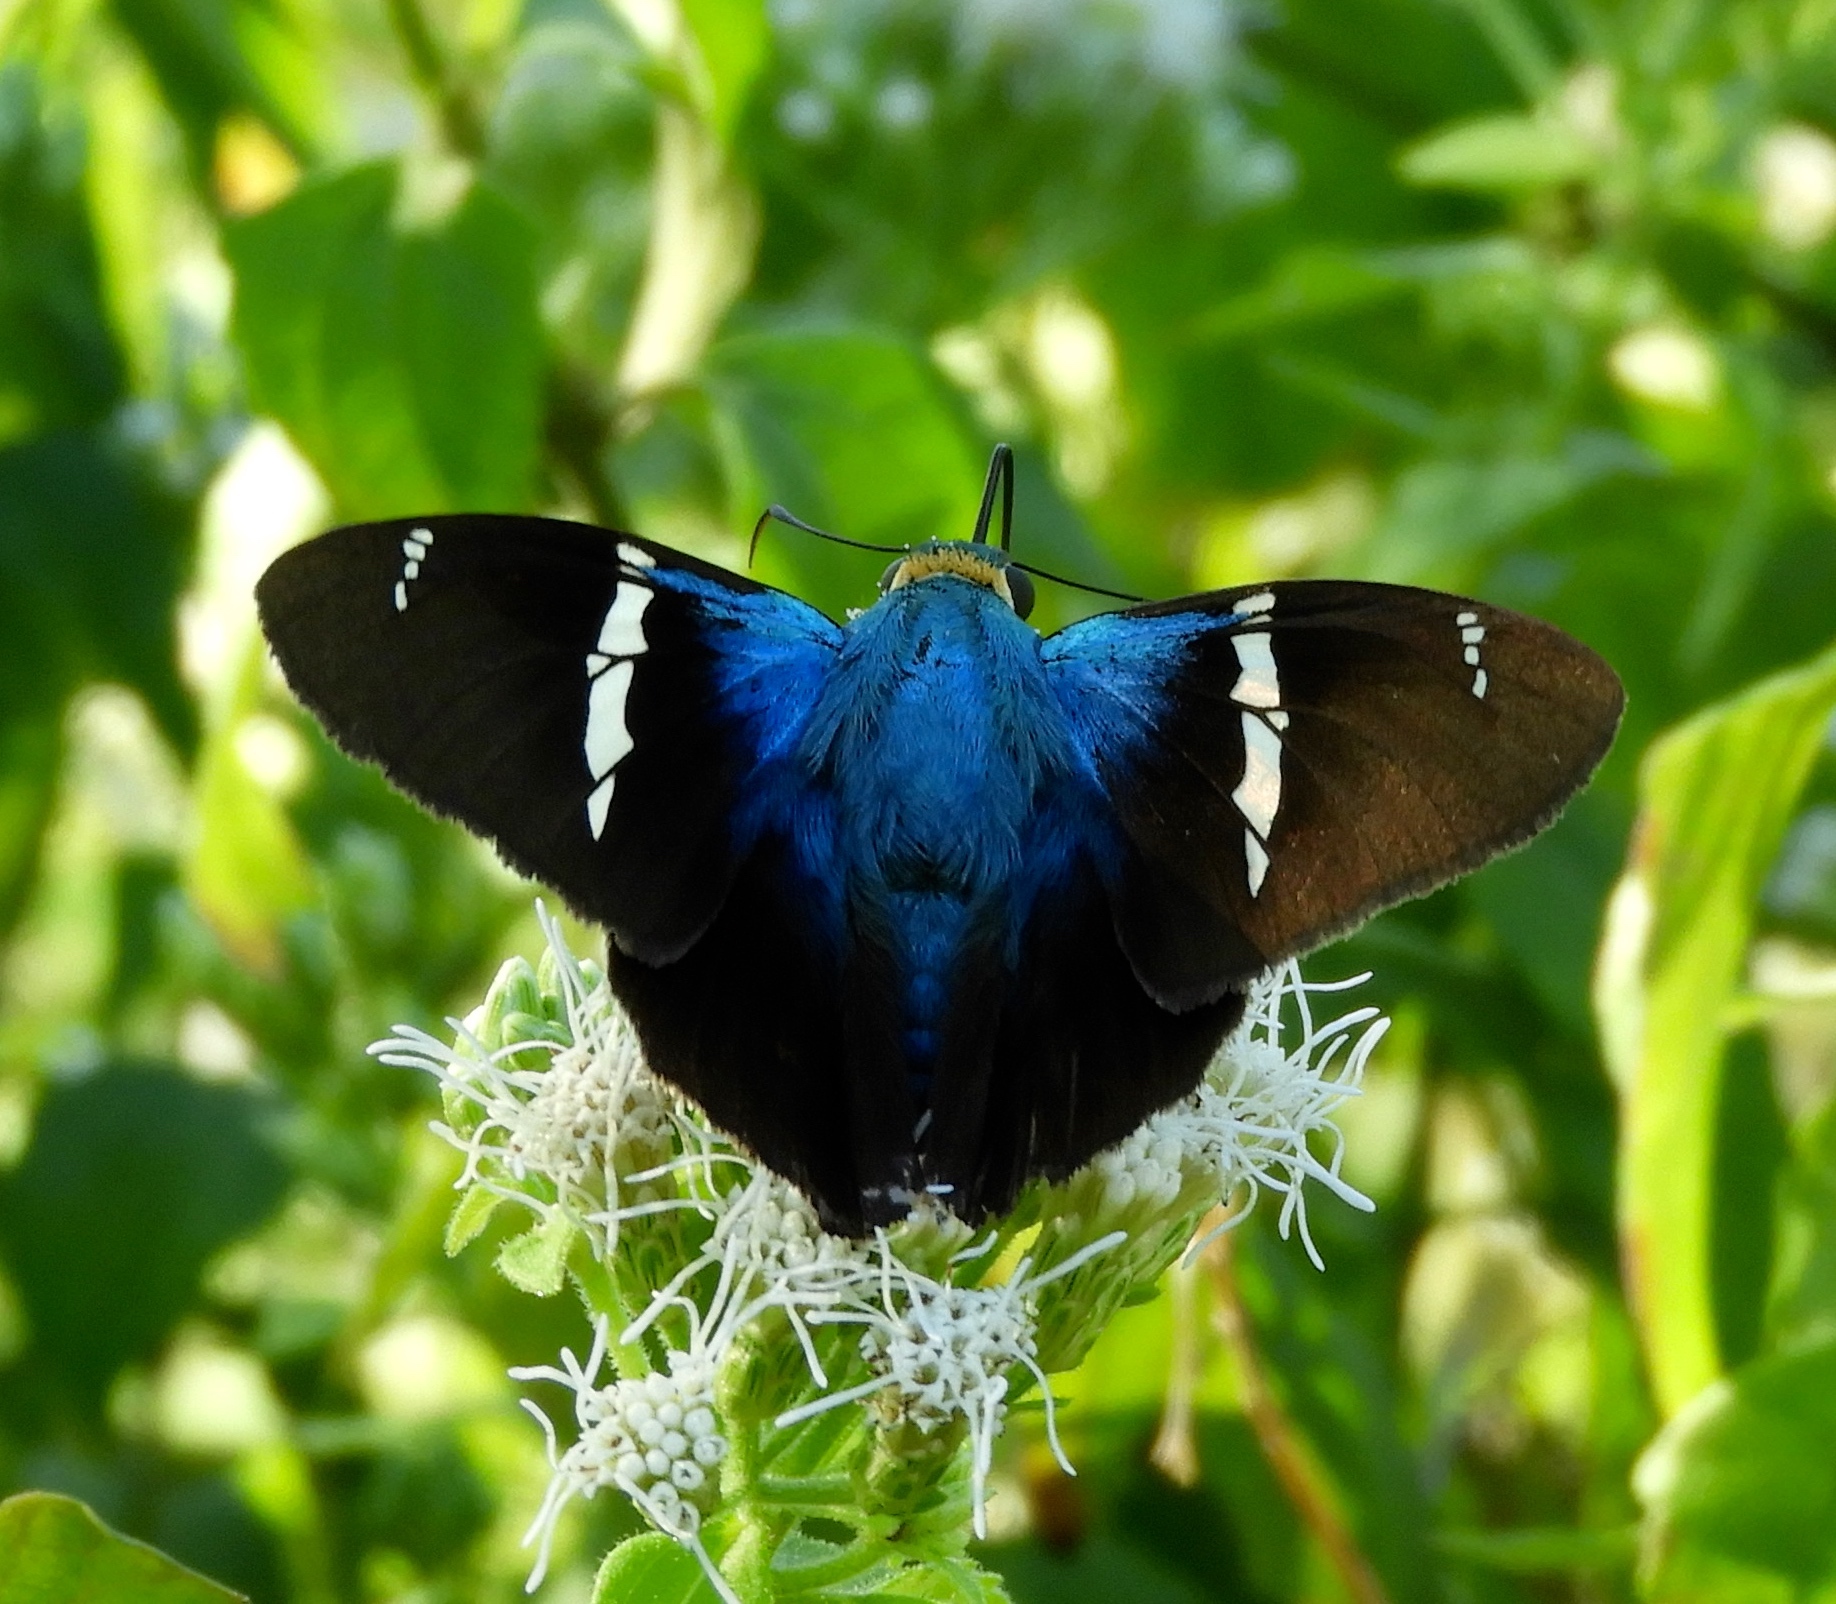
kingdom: Animalia
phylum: Arthropoda
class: Insecta
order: Lepidoptera
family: Hesperiidae
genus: Astraptes
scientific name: Astraptes fulgerator
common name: Two-barred flasher
